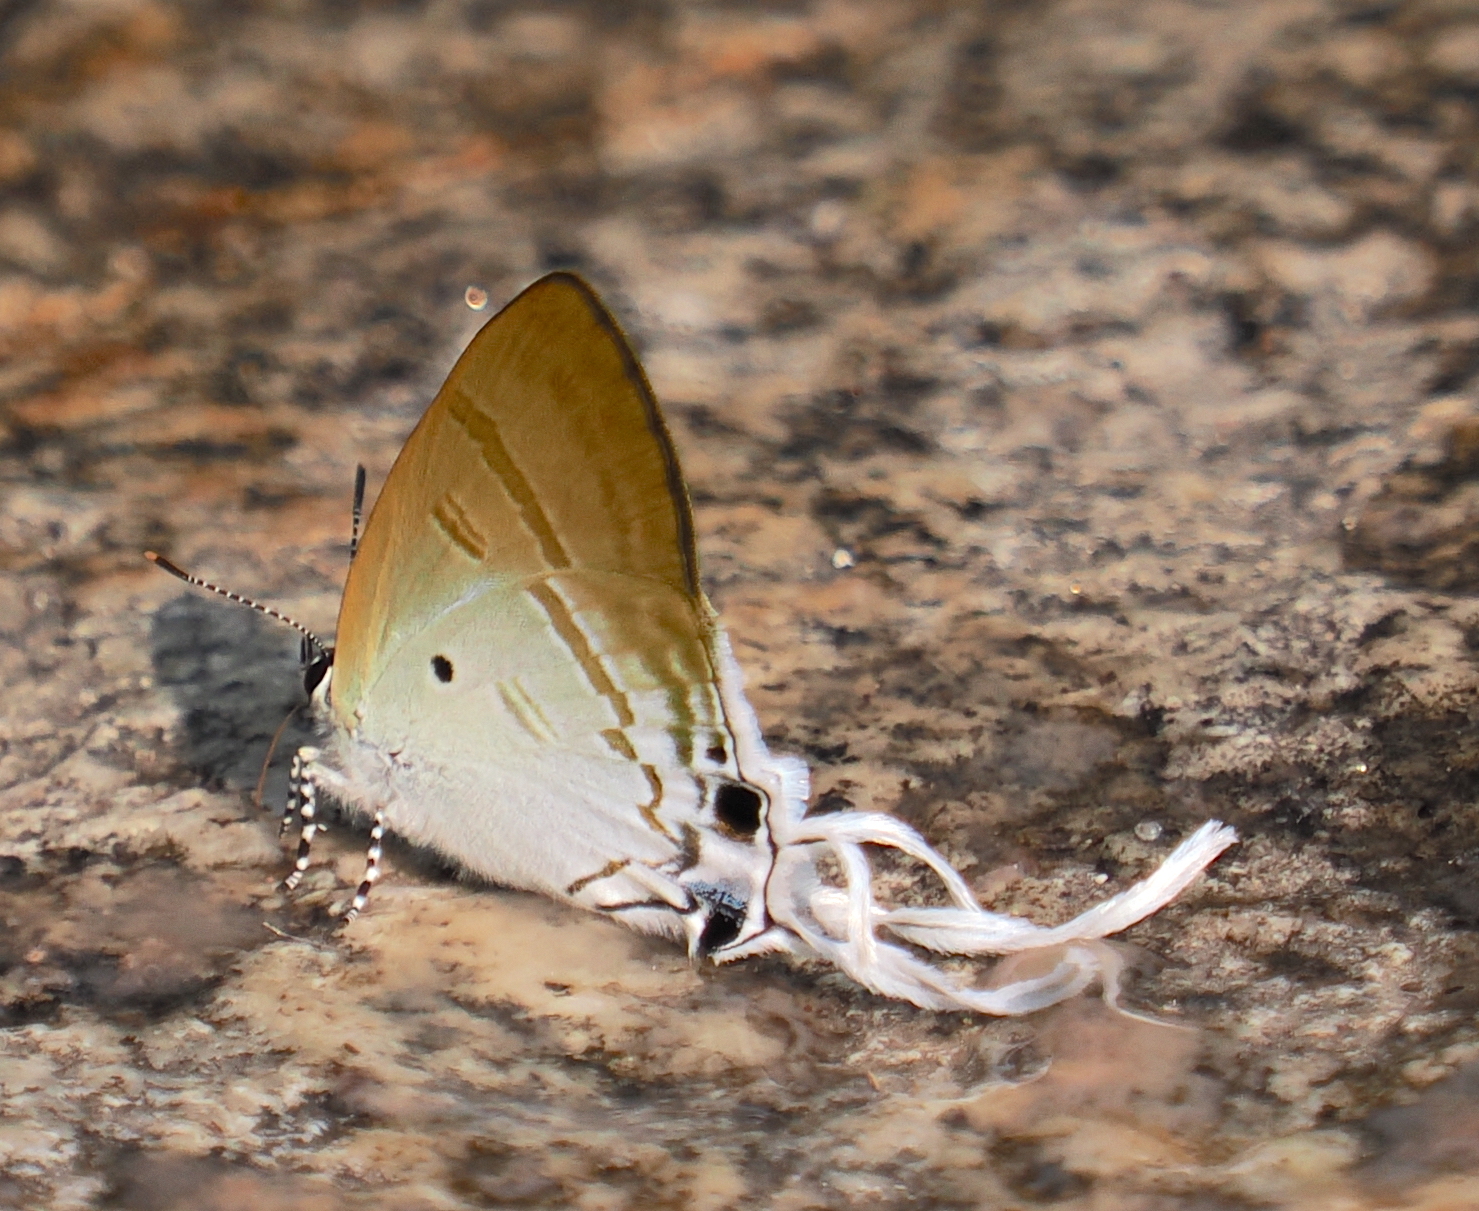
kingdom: Animalia
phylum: Arthropoda
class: Insecta
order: Lepidoptera
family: Lycaenidae
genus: Zeltus
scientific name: Zeltus amasa
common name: Fluffy tit
